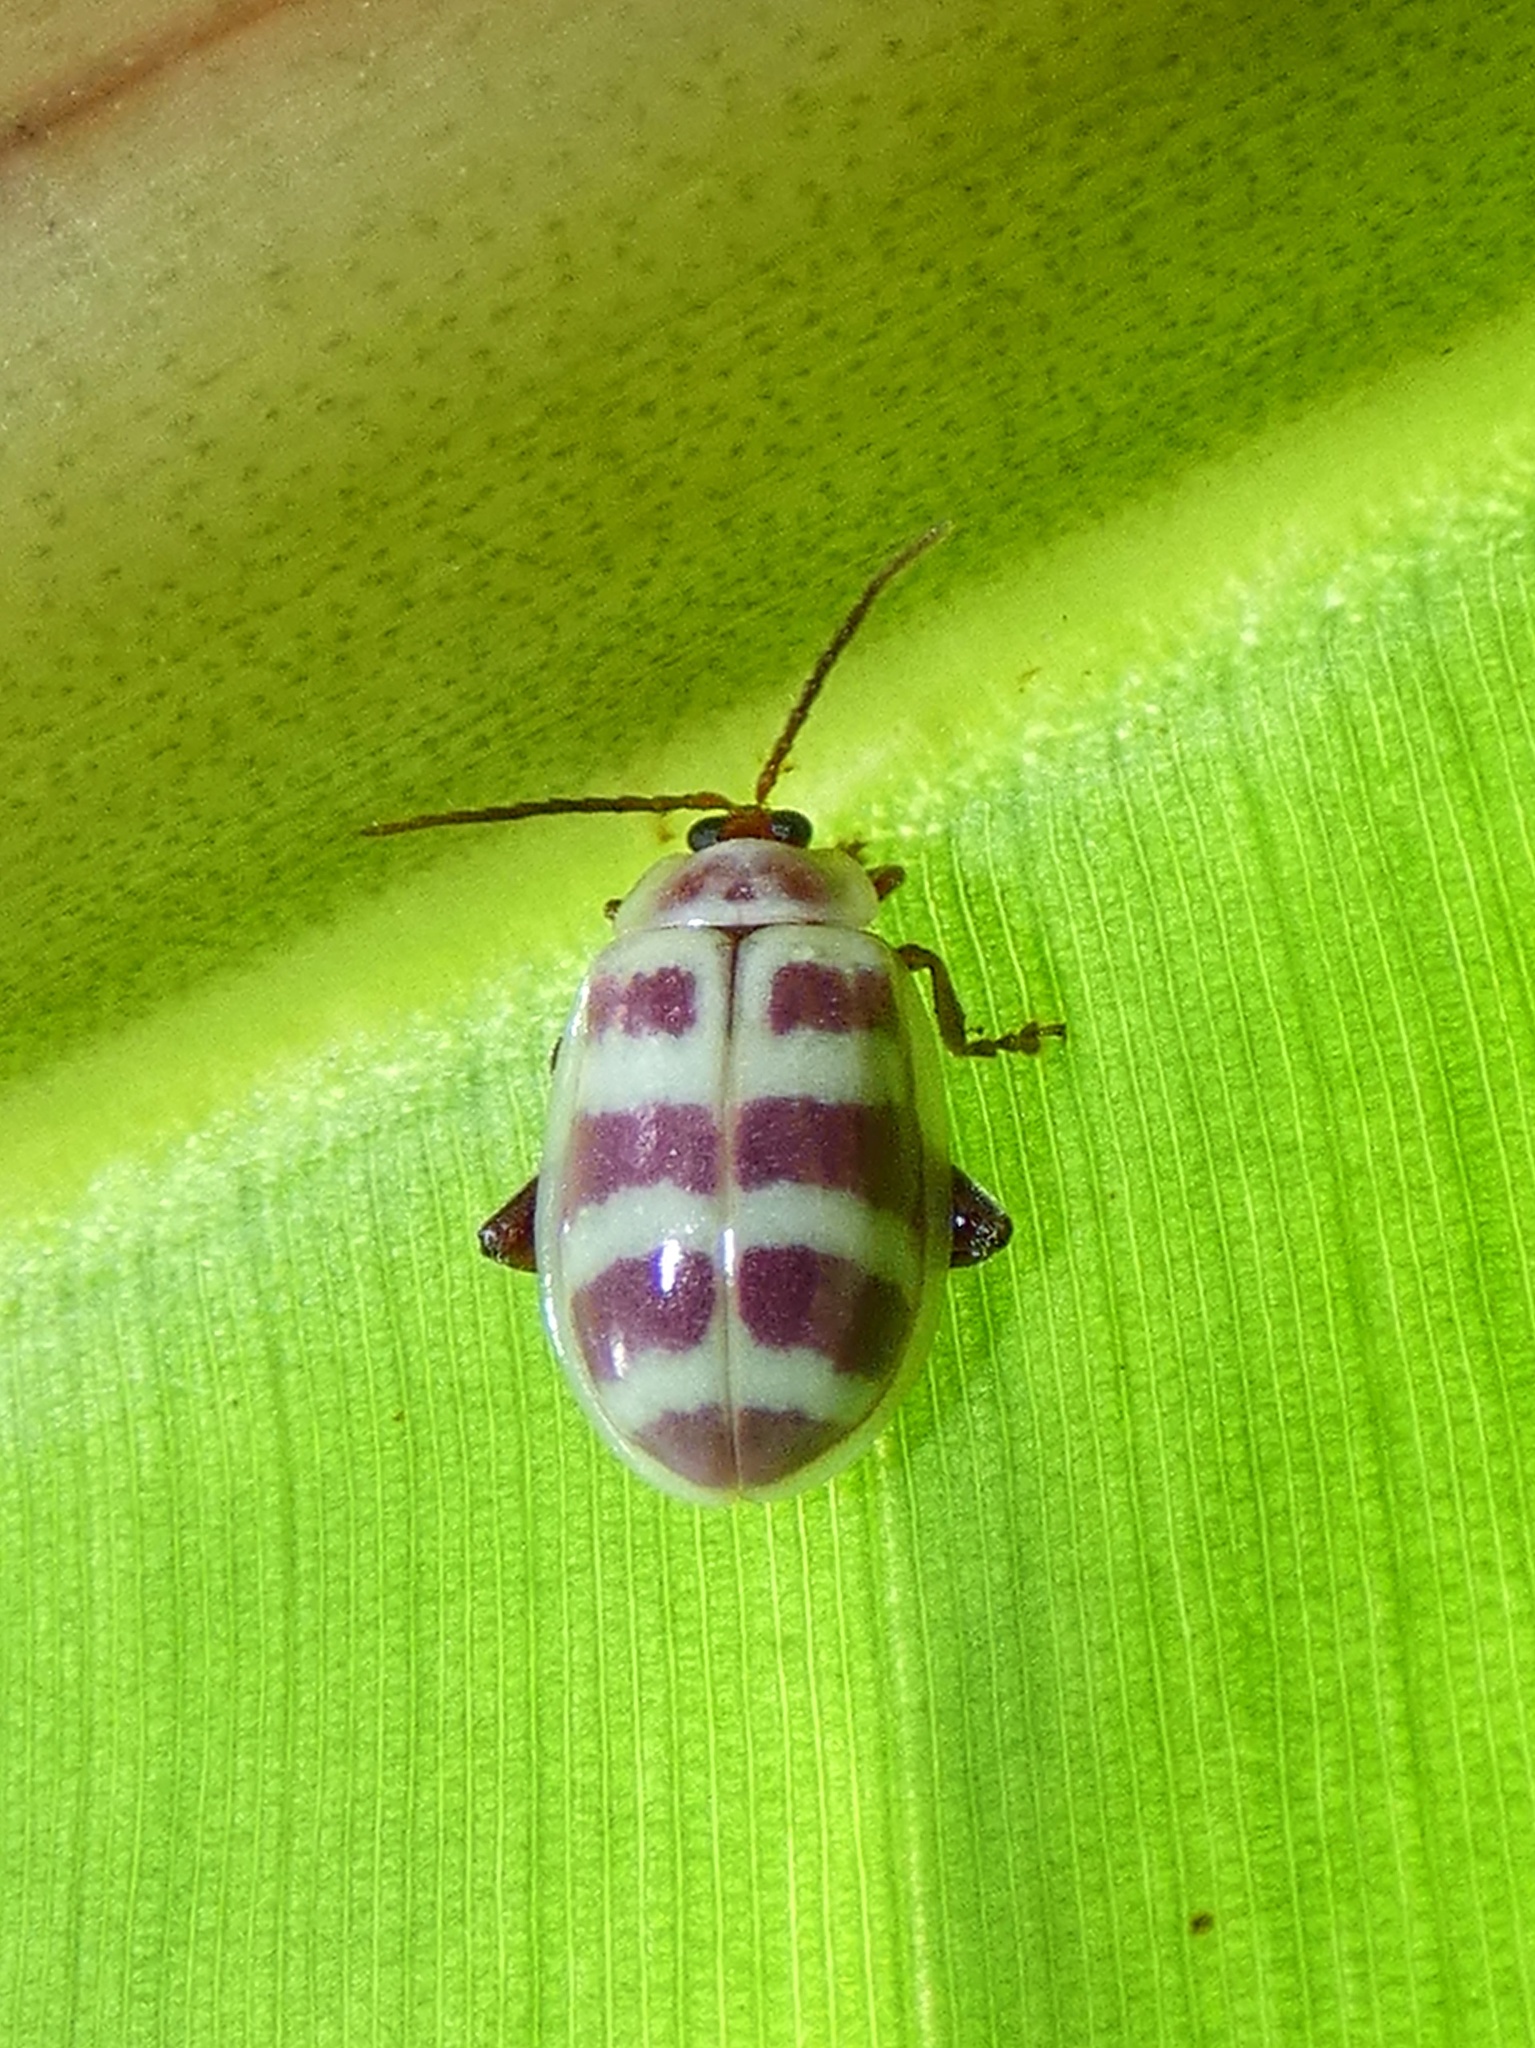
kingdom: Animalia
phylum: Arthropoda
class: Insecta
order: Coleoptera
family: Chrysomelidae
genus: Asphaera
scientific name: Asphaera
